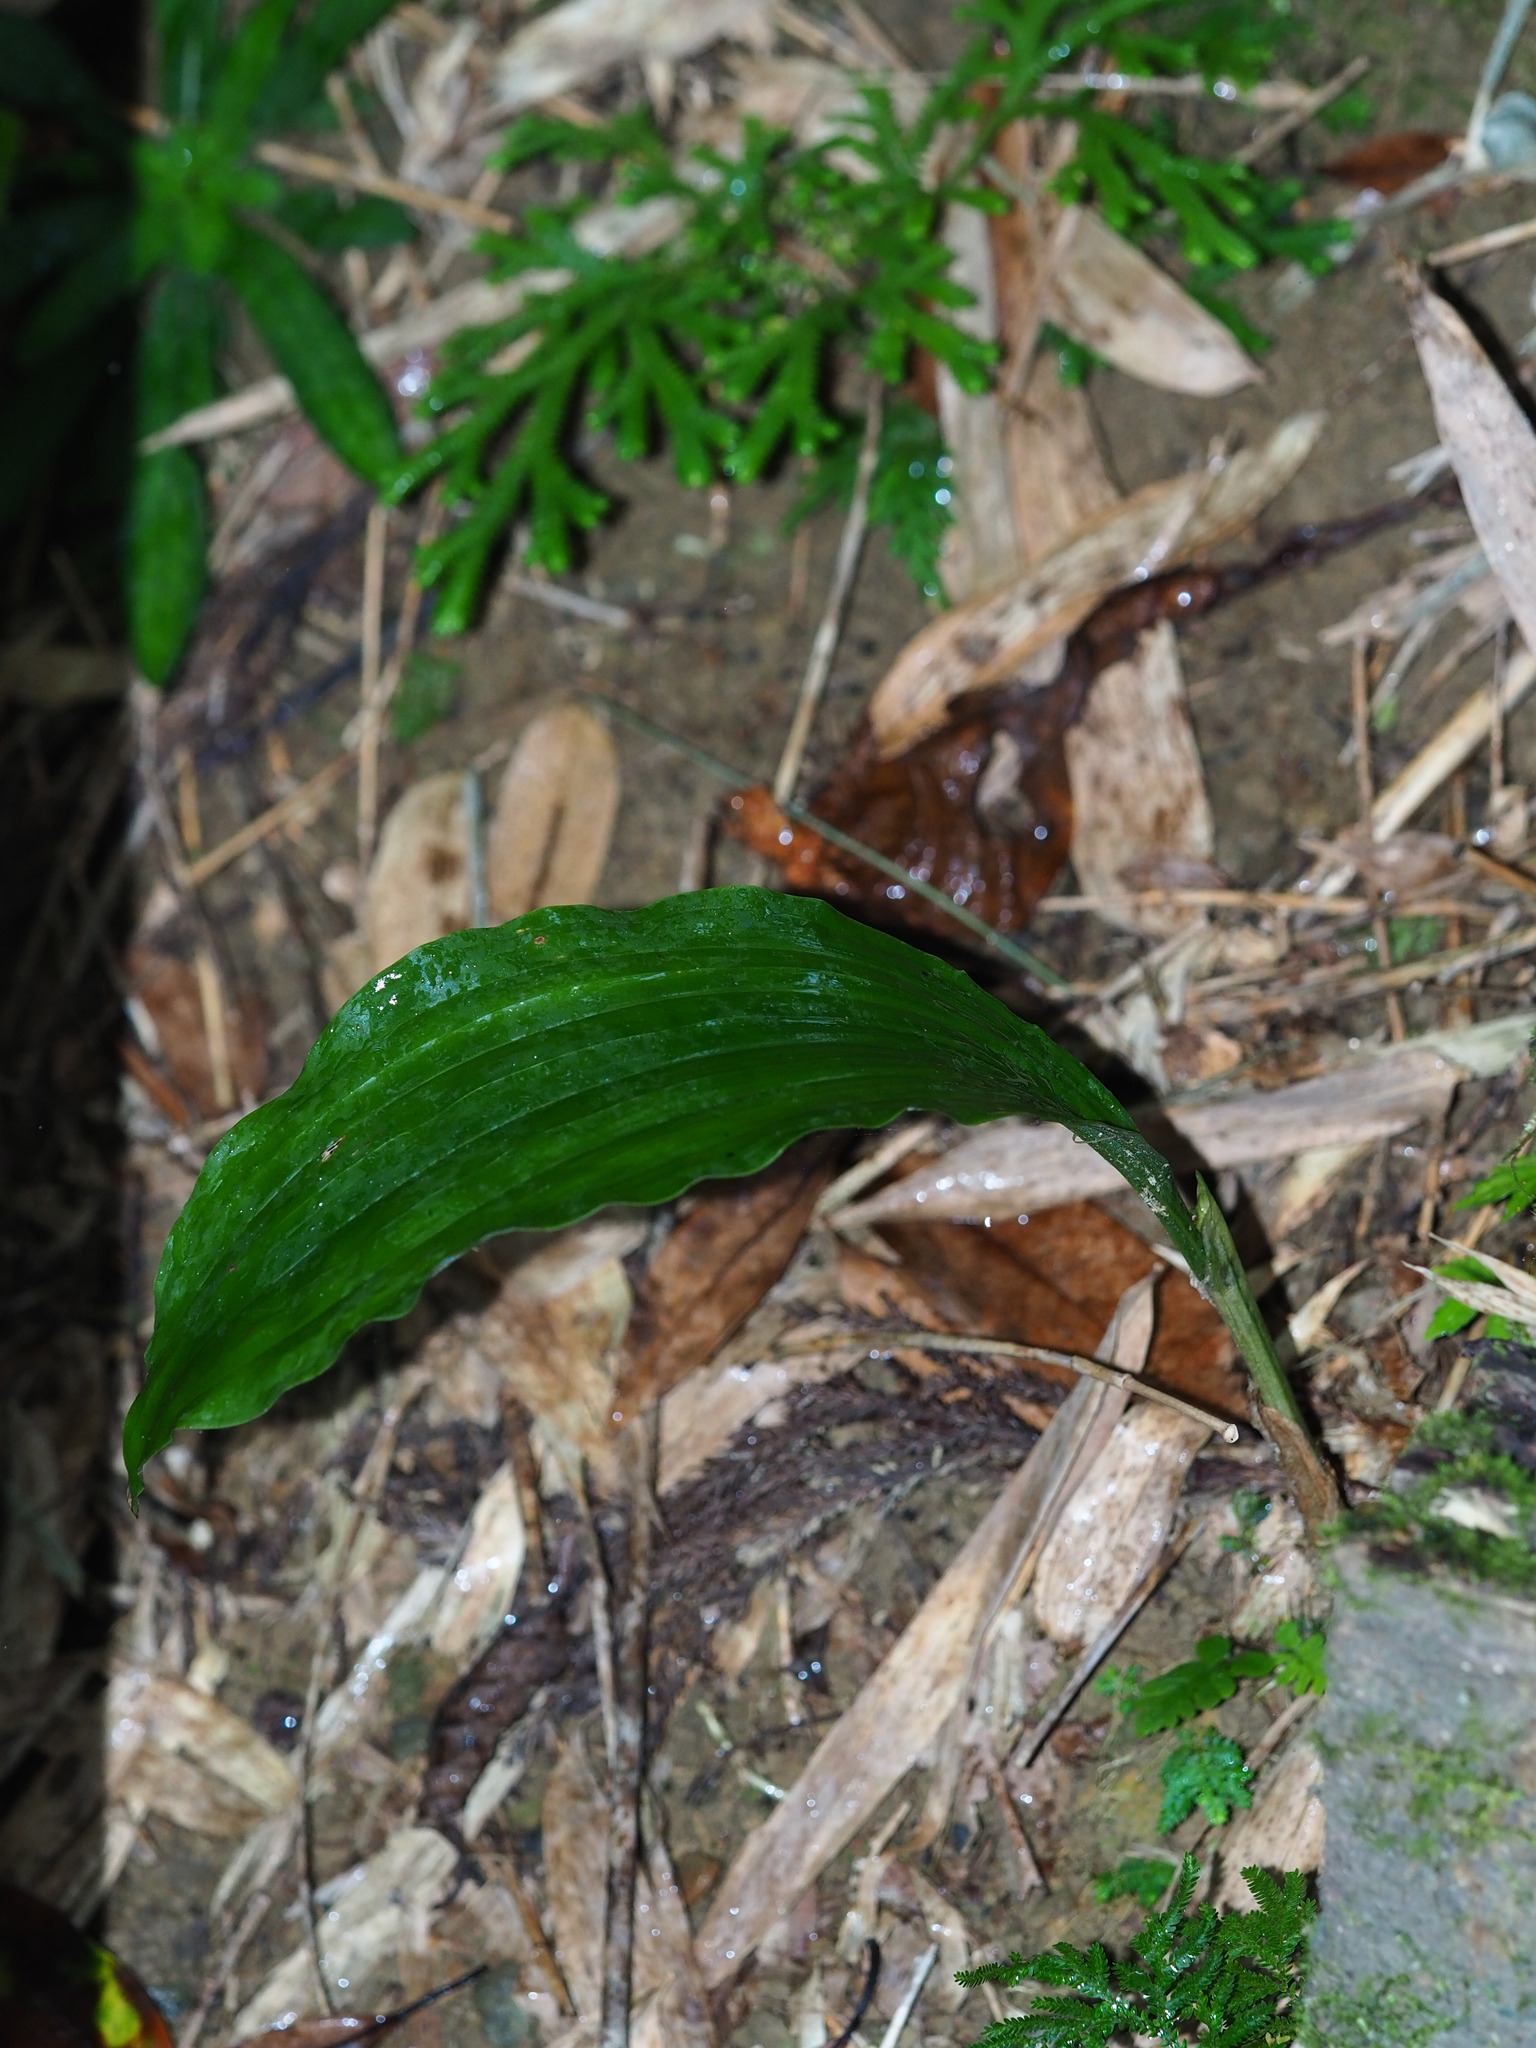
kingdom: Plantae
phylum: Tracheophyta
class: Liliopsida
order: Asparagales
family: Orchidaceae
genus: Acanthophippium
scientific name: Acanthophippium striatum
